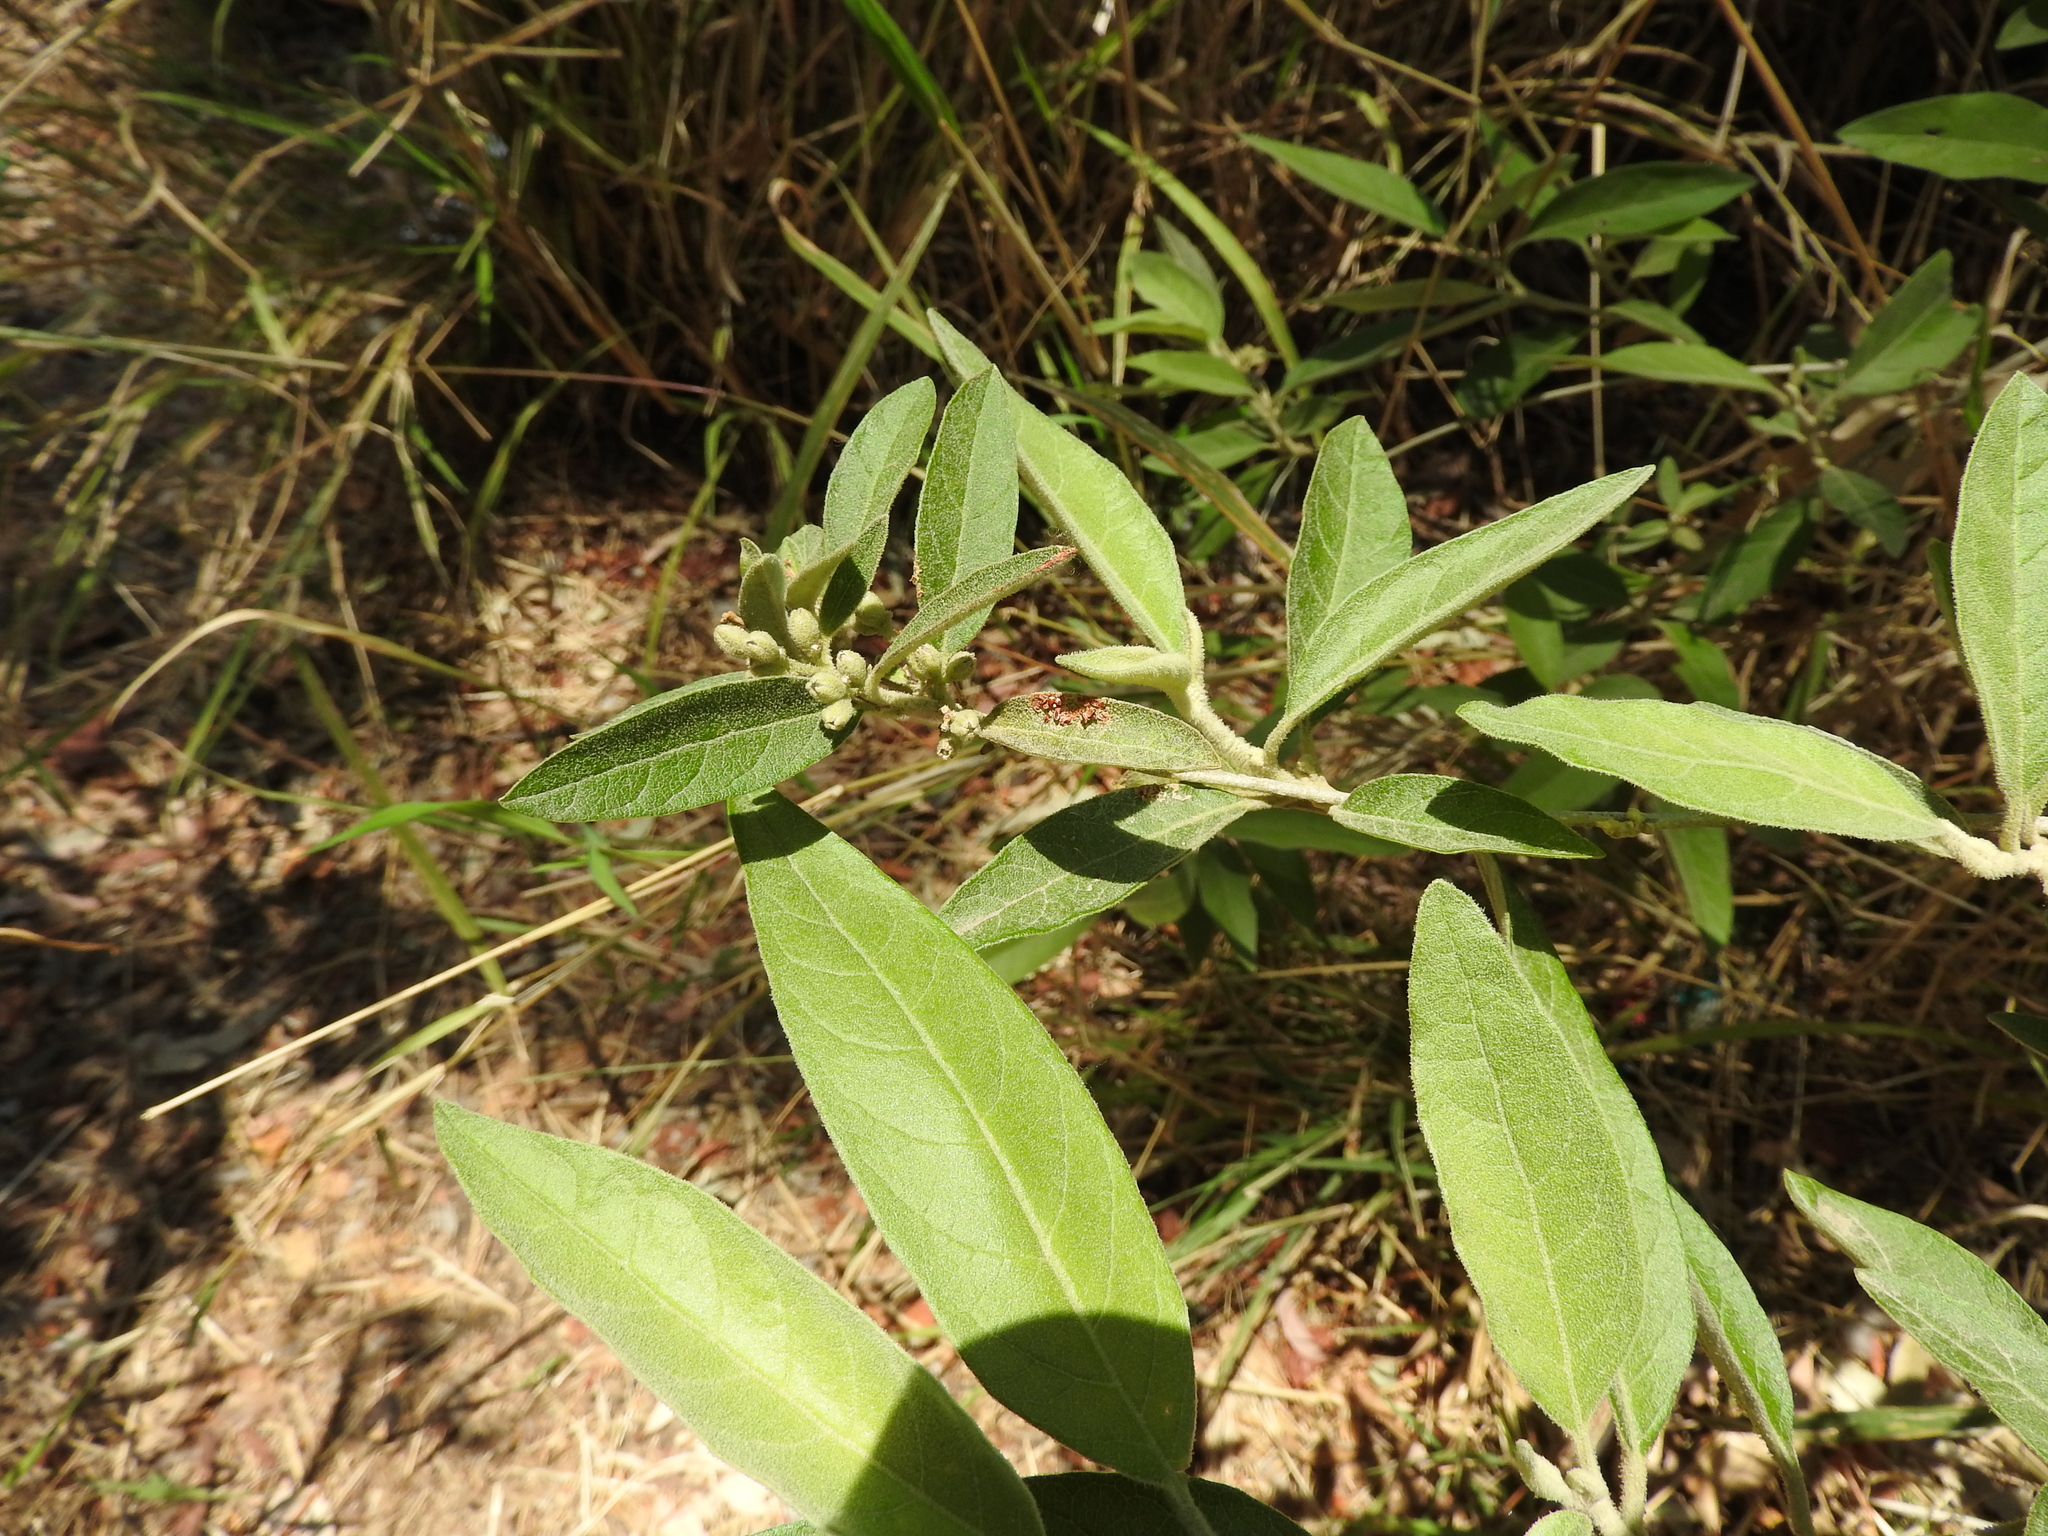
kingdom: Plantae
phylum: Tracheophyta
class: Magnoliopsida
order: Lamiales
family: Scrophulariaceae
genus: Buddleja
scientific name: Buddleja sessiliflora
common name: Rio grande butterfly-bush
